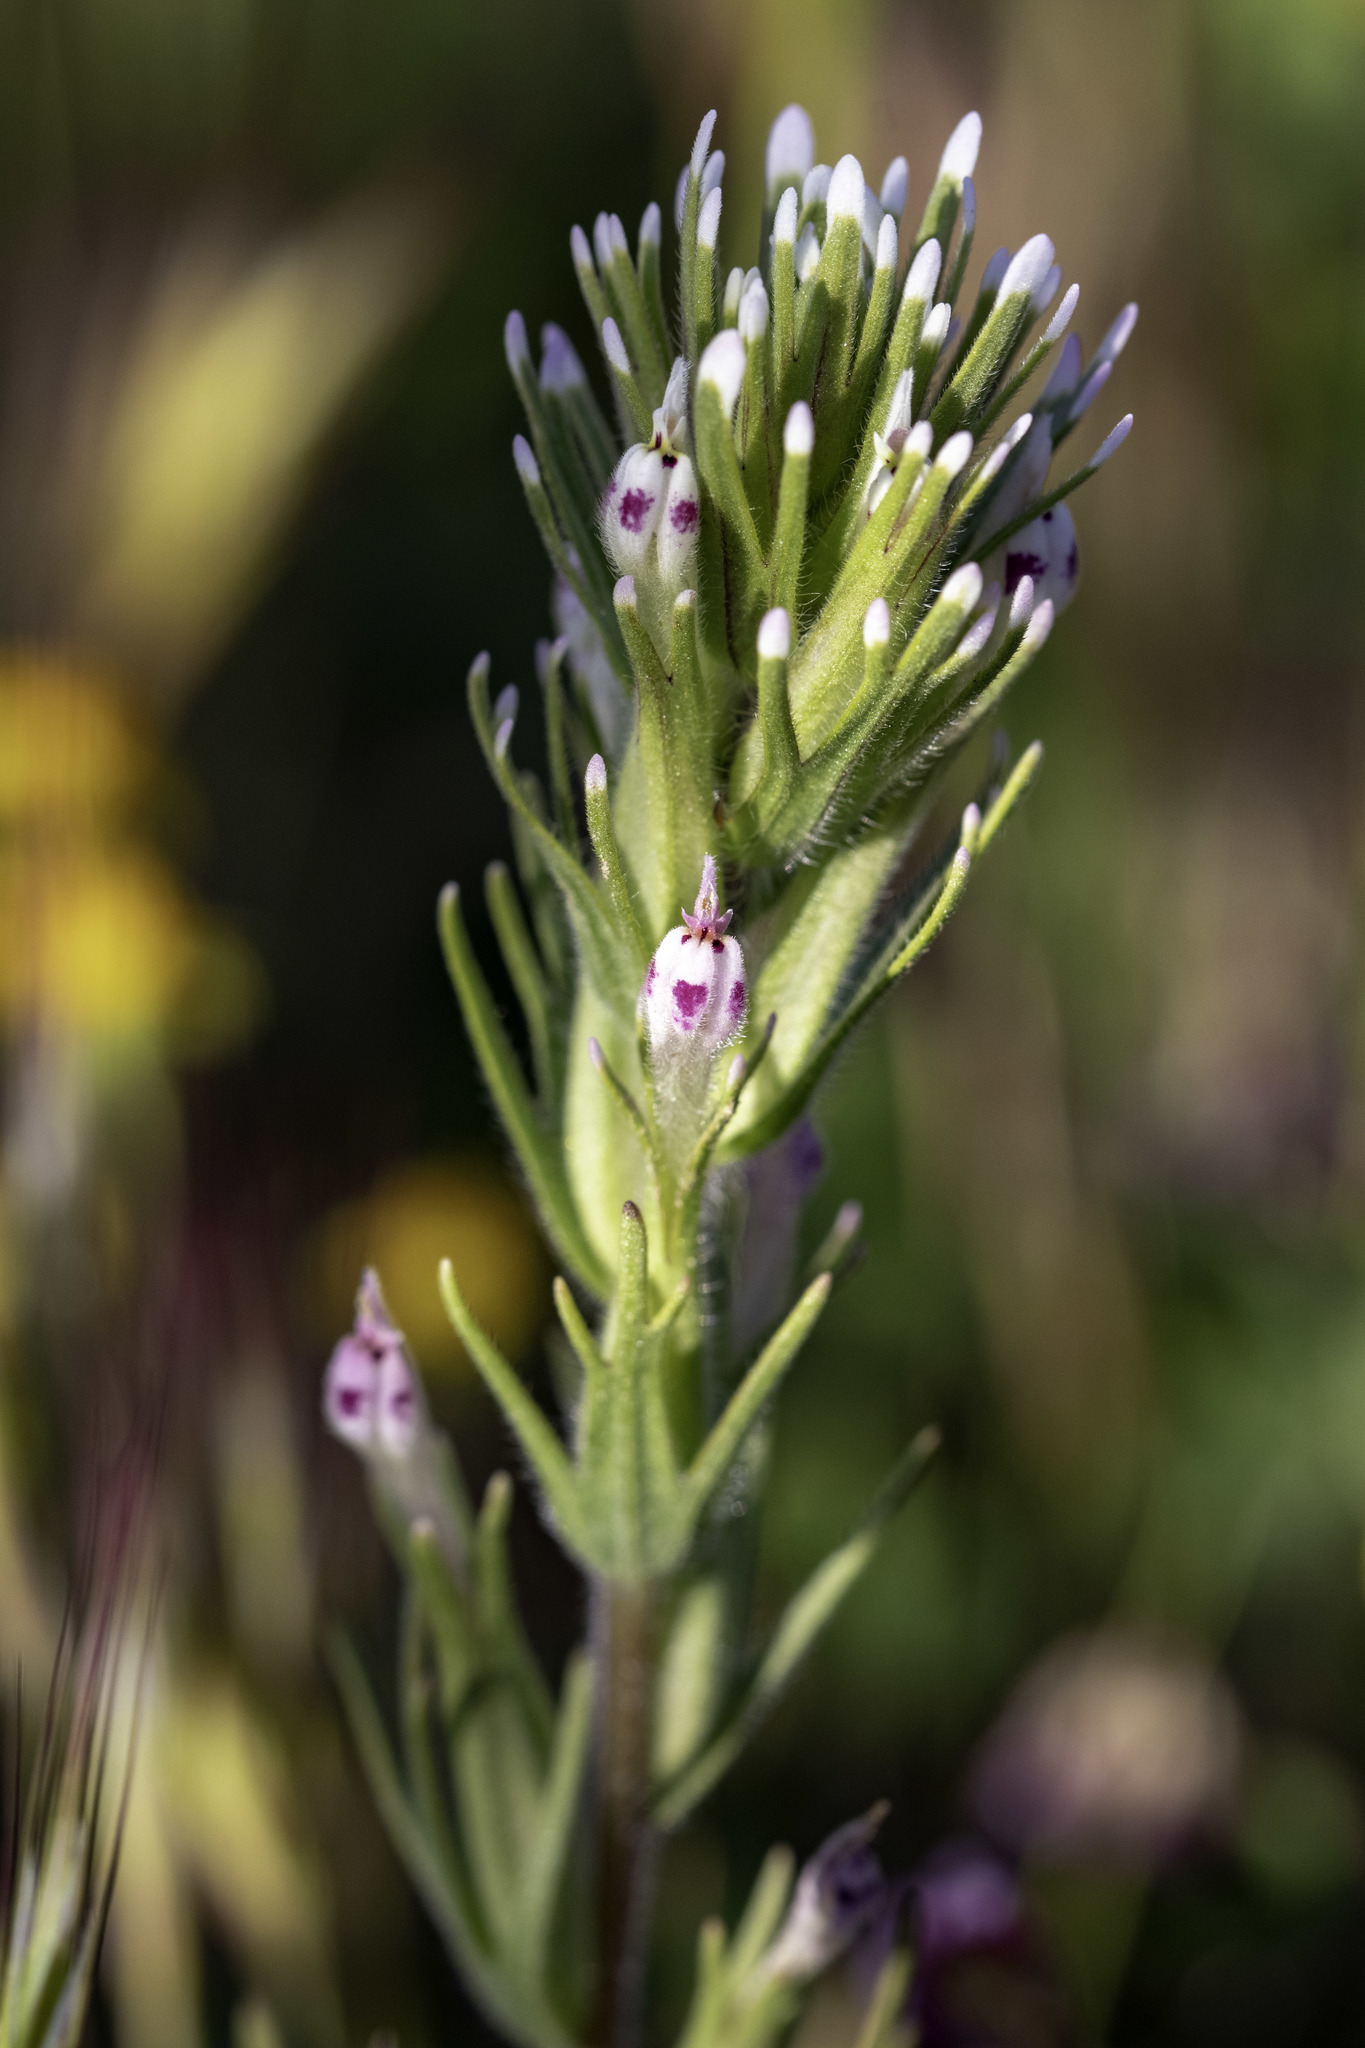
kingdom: Plantae
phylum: Tracheophyta
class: Magnoliopsida
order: Lamiales
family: Orobanchaceae
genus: Castilleja
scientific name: Castilleja brevistyla
